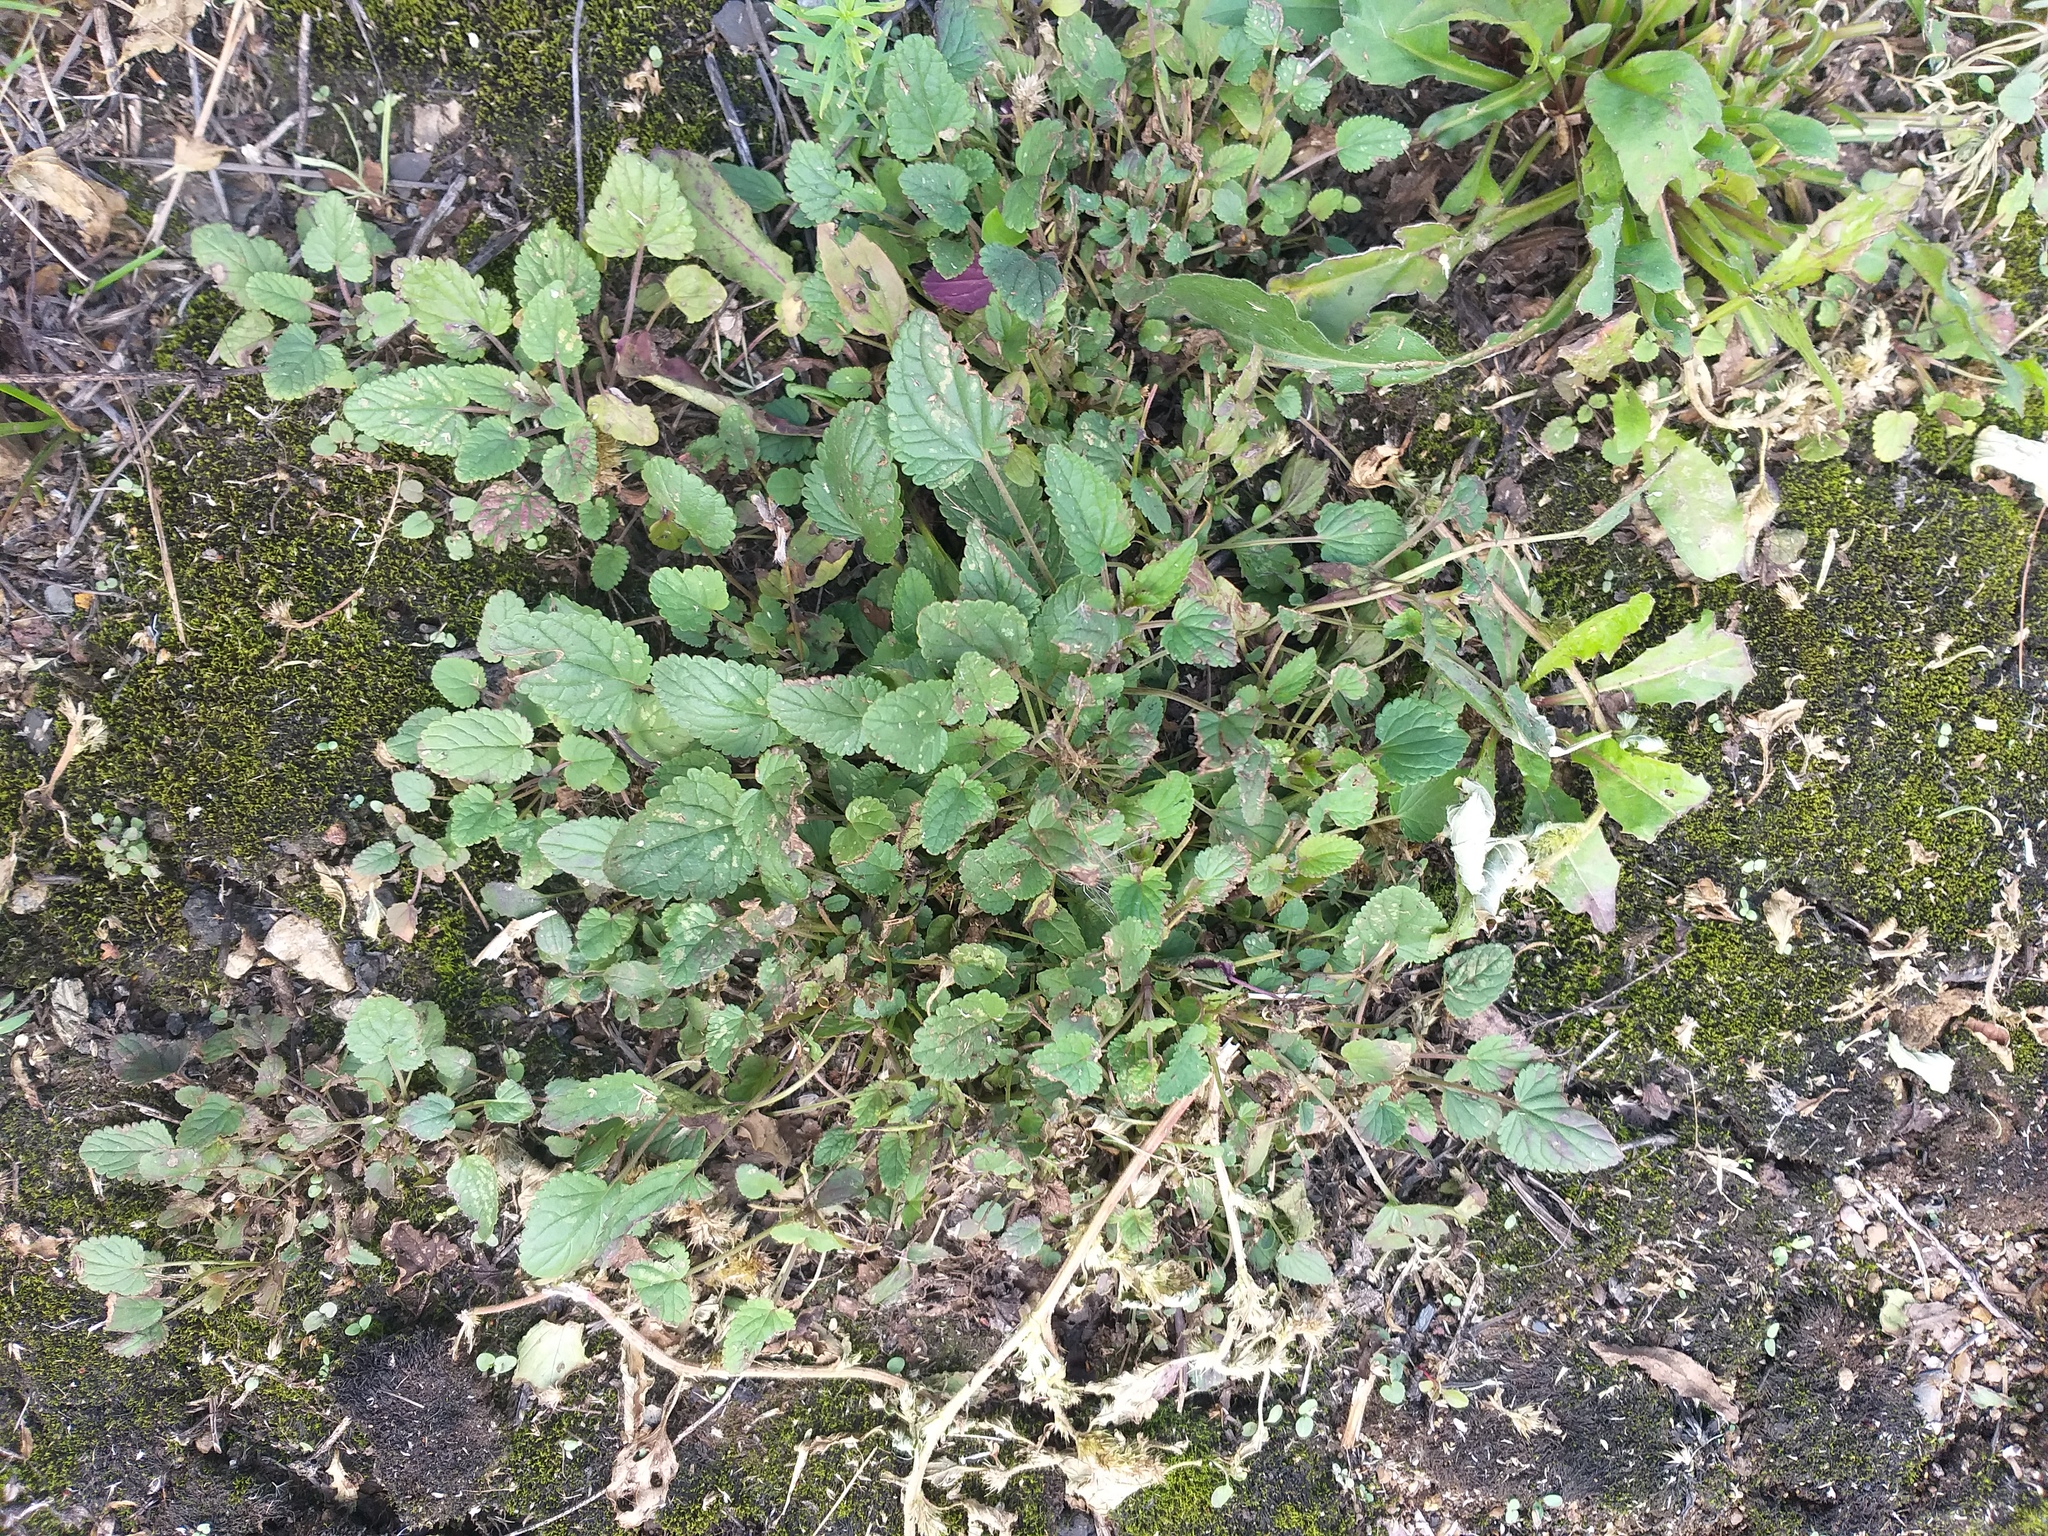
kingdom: Plantae
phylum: Tracheophyta
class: Magnoliopsida
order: Lamiales
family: Lamiaceae
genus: Dracocephalum
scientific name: Dracocephalum nutans
